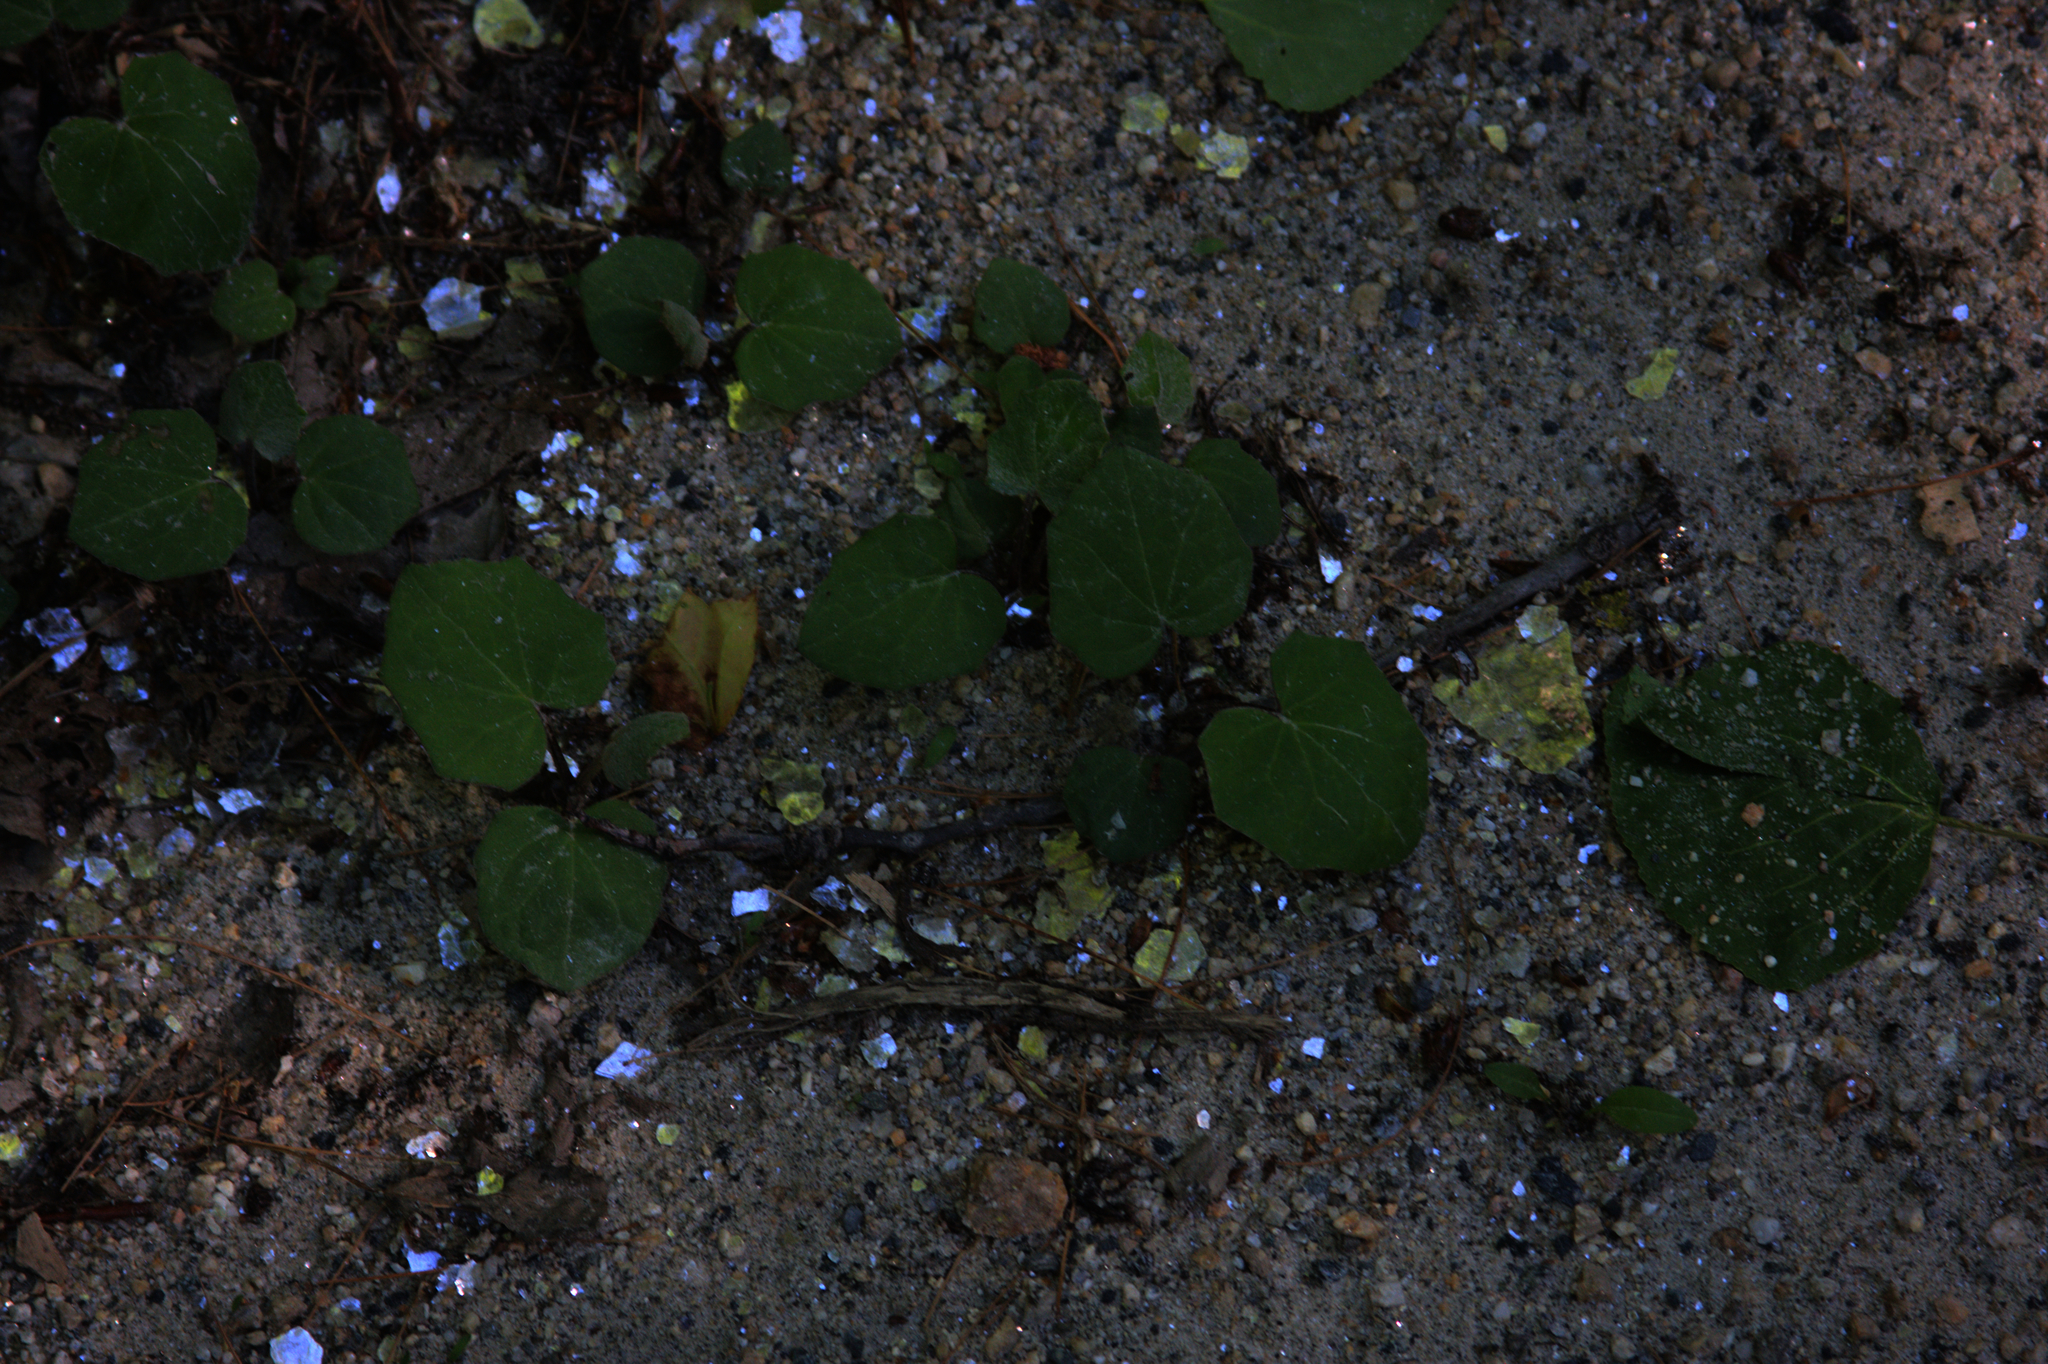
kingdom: Plantae
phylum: Tracheophyta
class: Magnoliopsida
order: Asterales
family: Asteraceae
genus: Tussilago
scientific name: Tussilago farfara
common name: Coltsfoot
